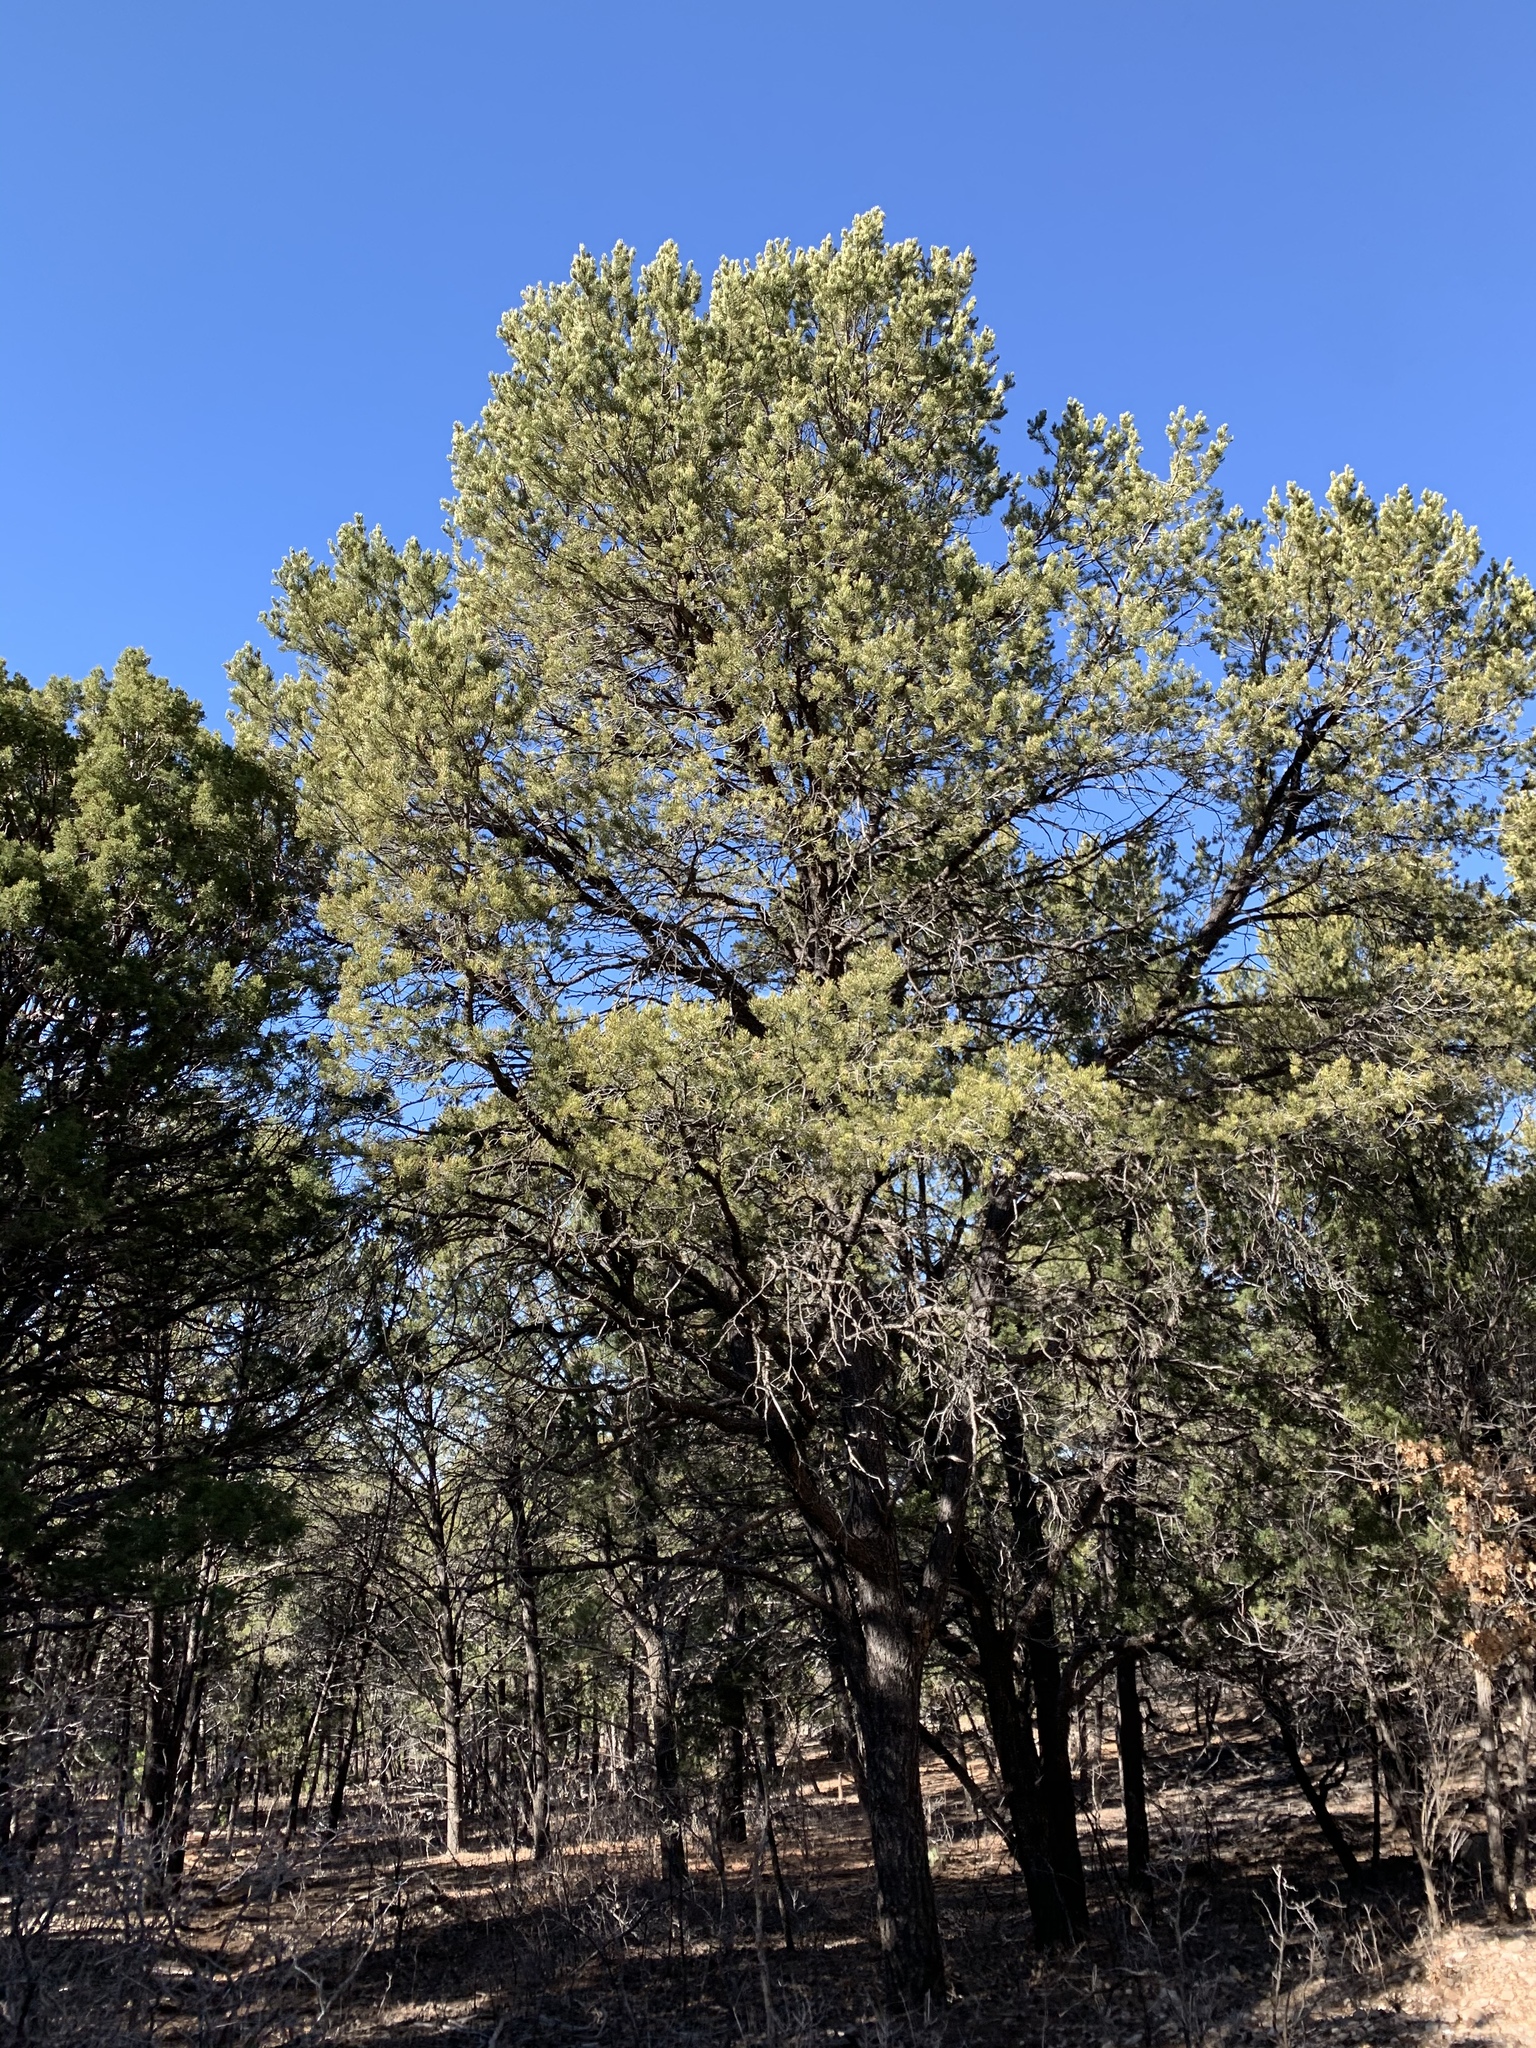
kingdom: Plantae
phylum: Tracheophyta
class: Pinopsida
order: Pinales
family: Pinaceae
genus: Pinus
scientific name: Pinus edulis
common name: Colorado pinyon
